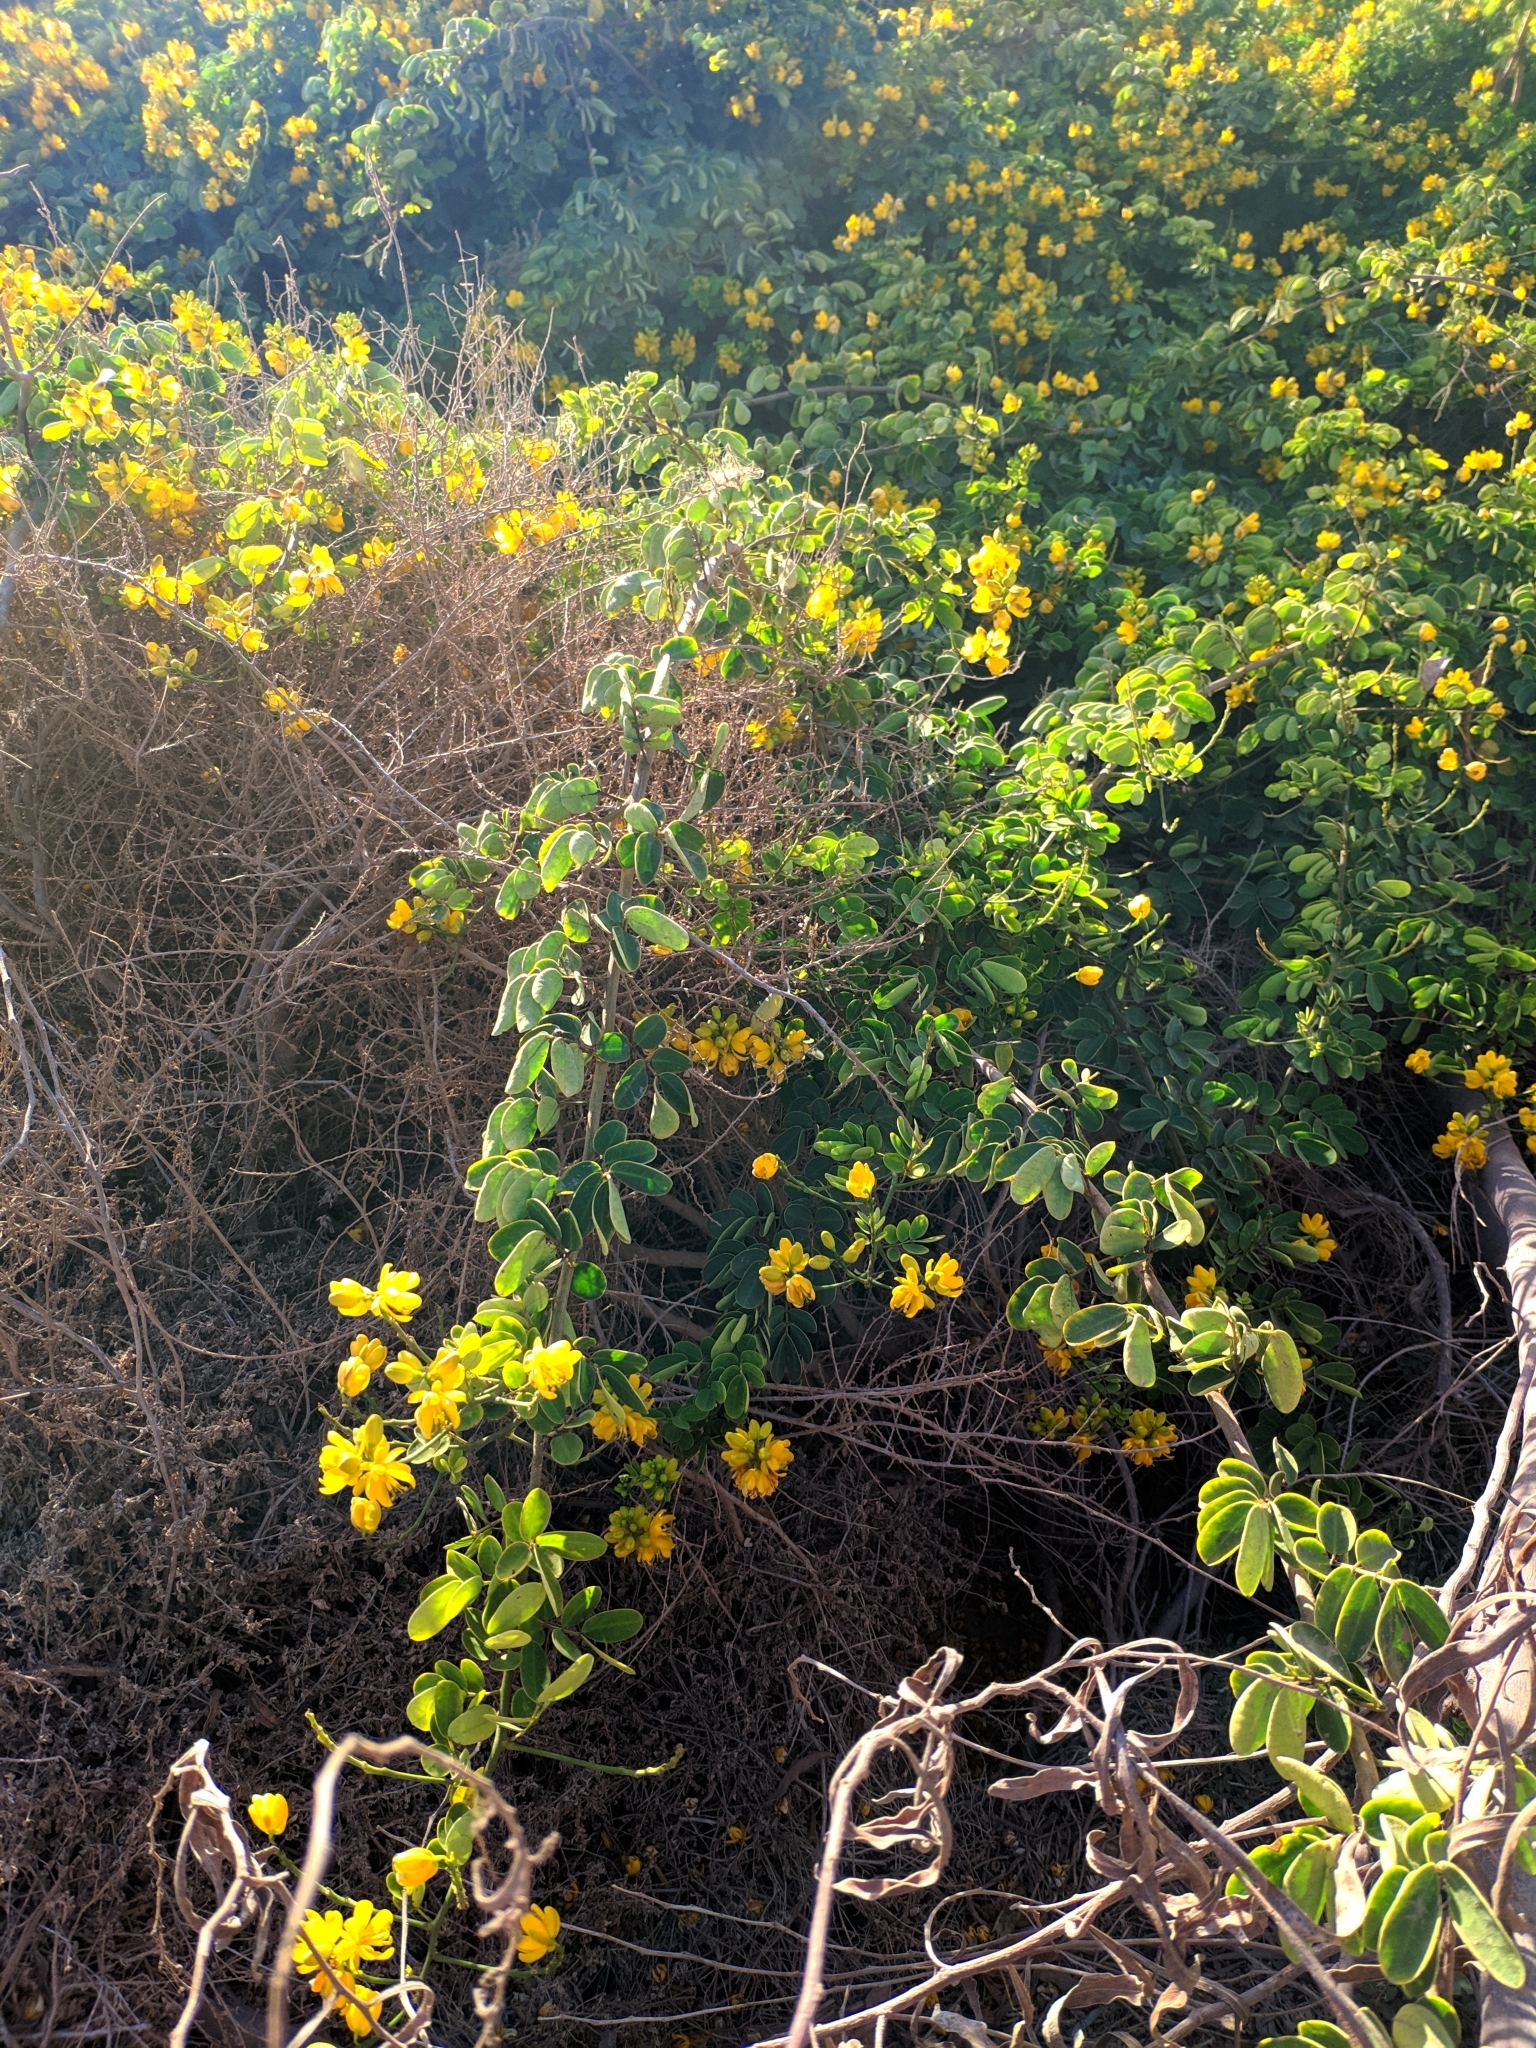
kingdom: Plantae
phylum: Tracheophyta
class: Magnoliopsida
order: Fabales
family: Fabaceae
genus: Senna
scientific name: Senna bicapsularis
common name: Christmasbush
